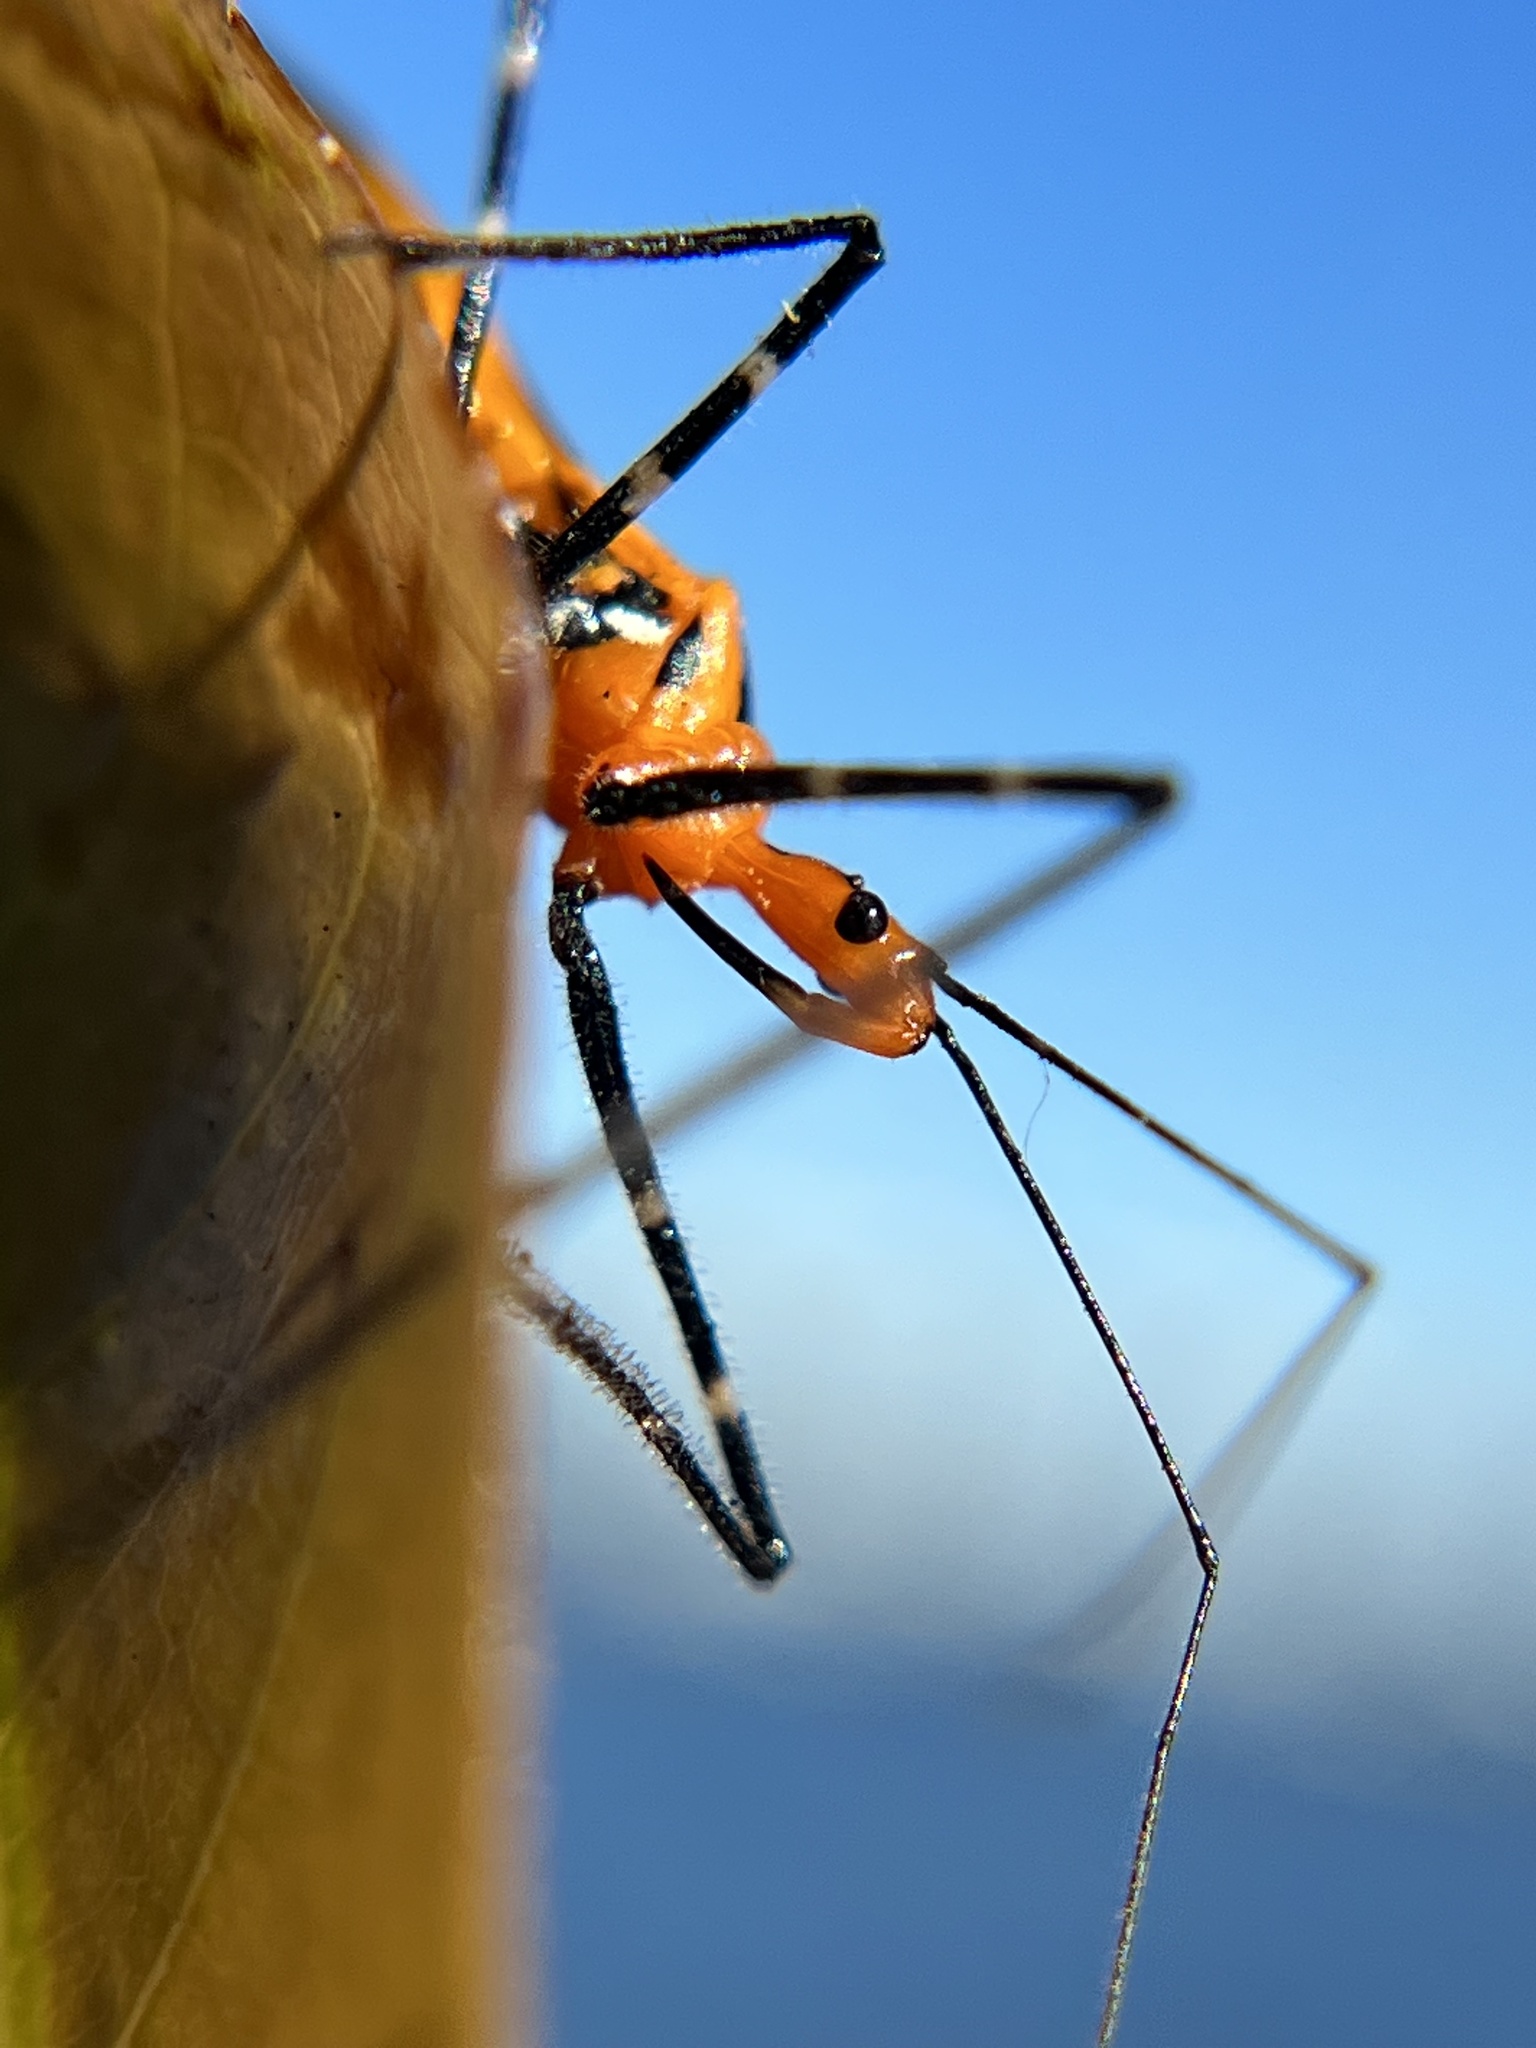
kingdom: Animalia
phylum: Arthropoda
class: Insecta
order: Hemiptera
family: Reduviidae
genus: Zelus
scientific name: Zelus longipes
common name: Milkweed assassin bug
